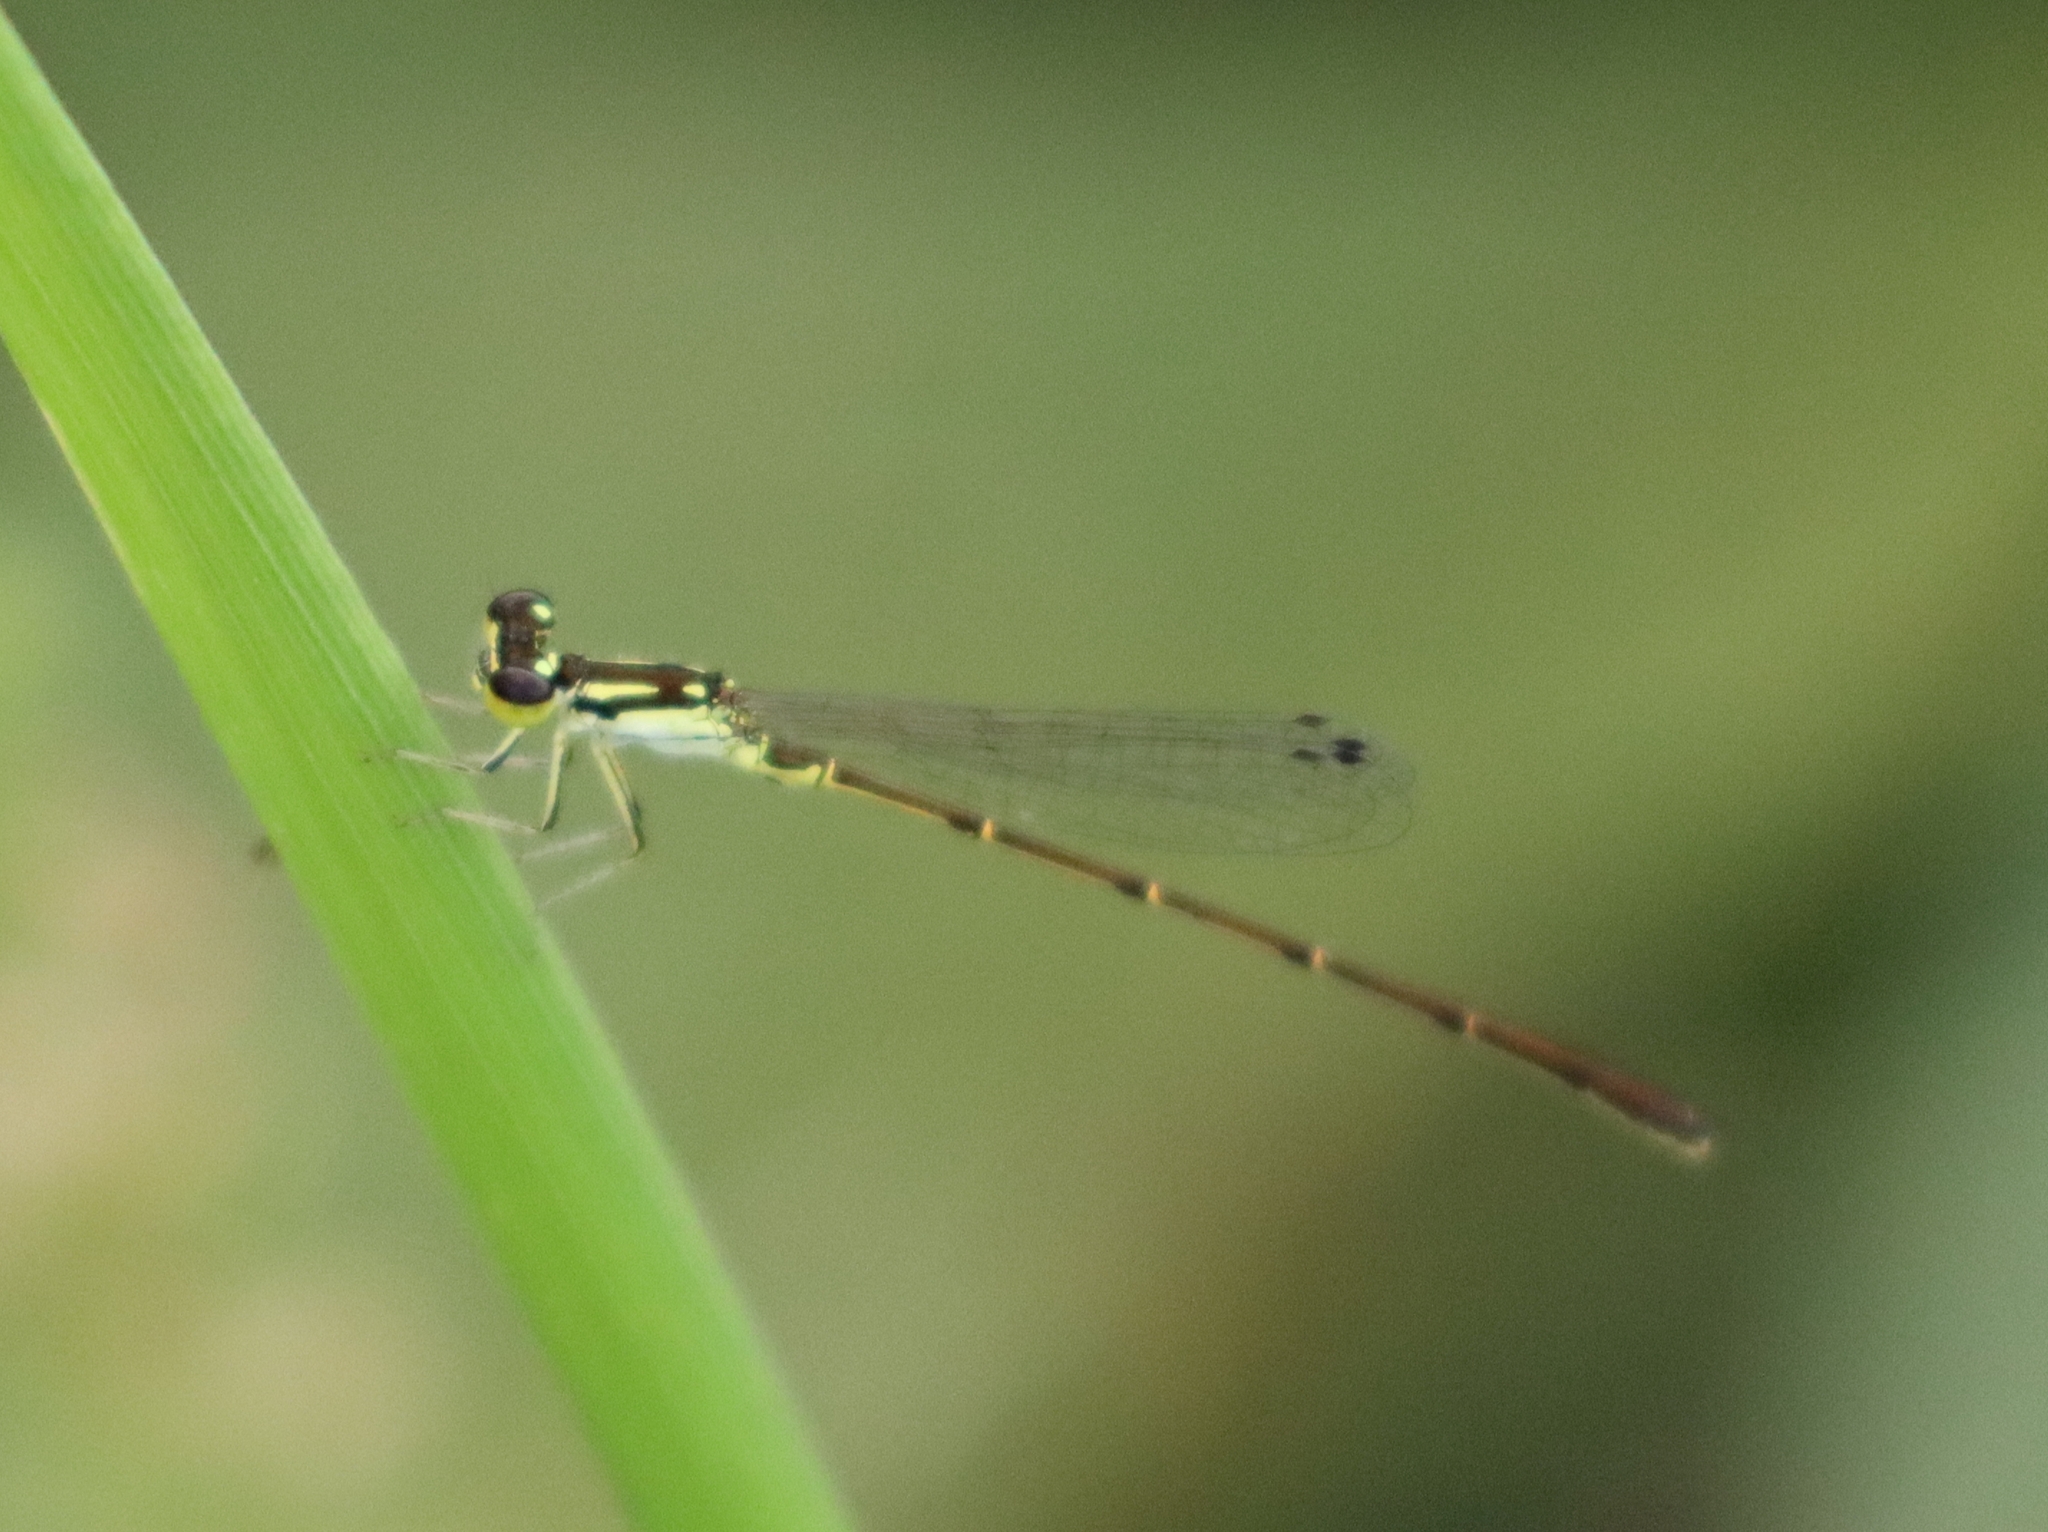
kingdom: Animalia
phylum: Arthropoda
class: Insecta
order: Odonata
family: Coenagrionidae
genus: Ischnura
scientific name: Ischnura posita
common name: Fragile forktail
